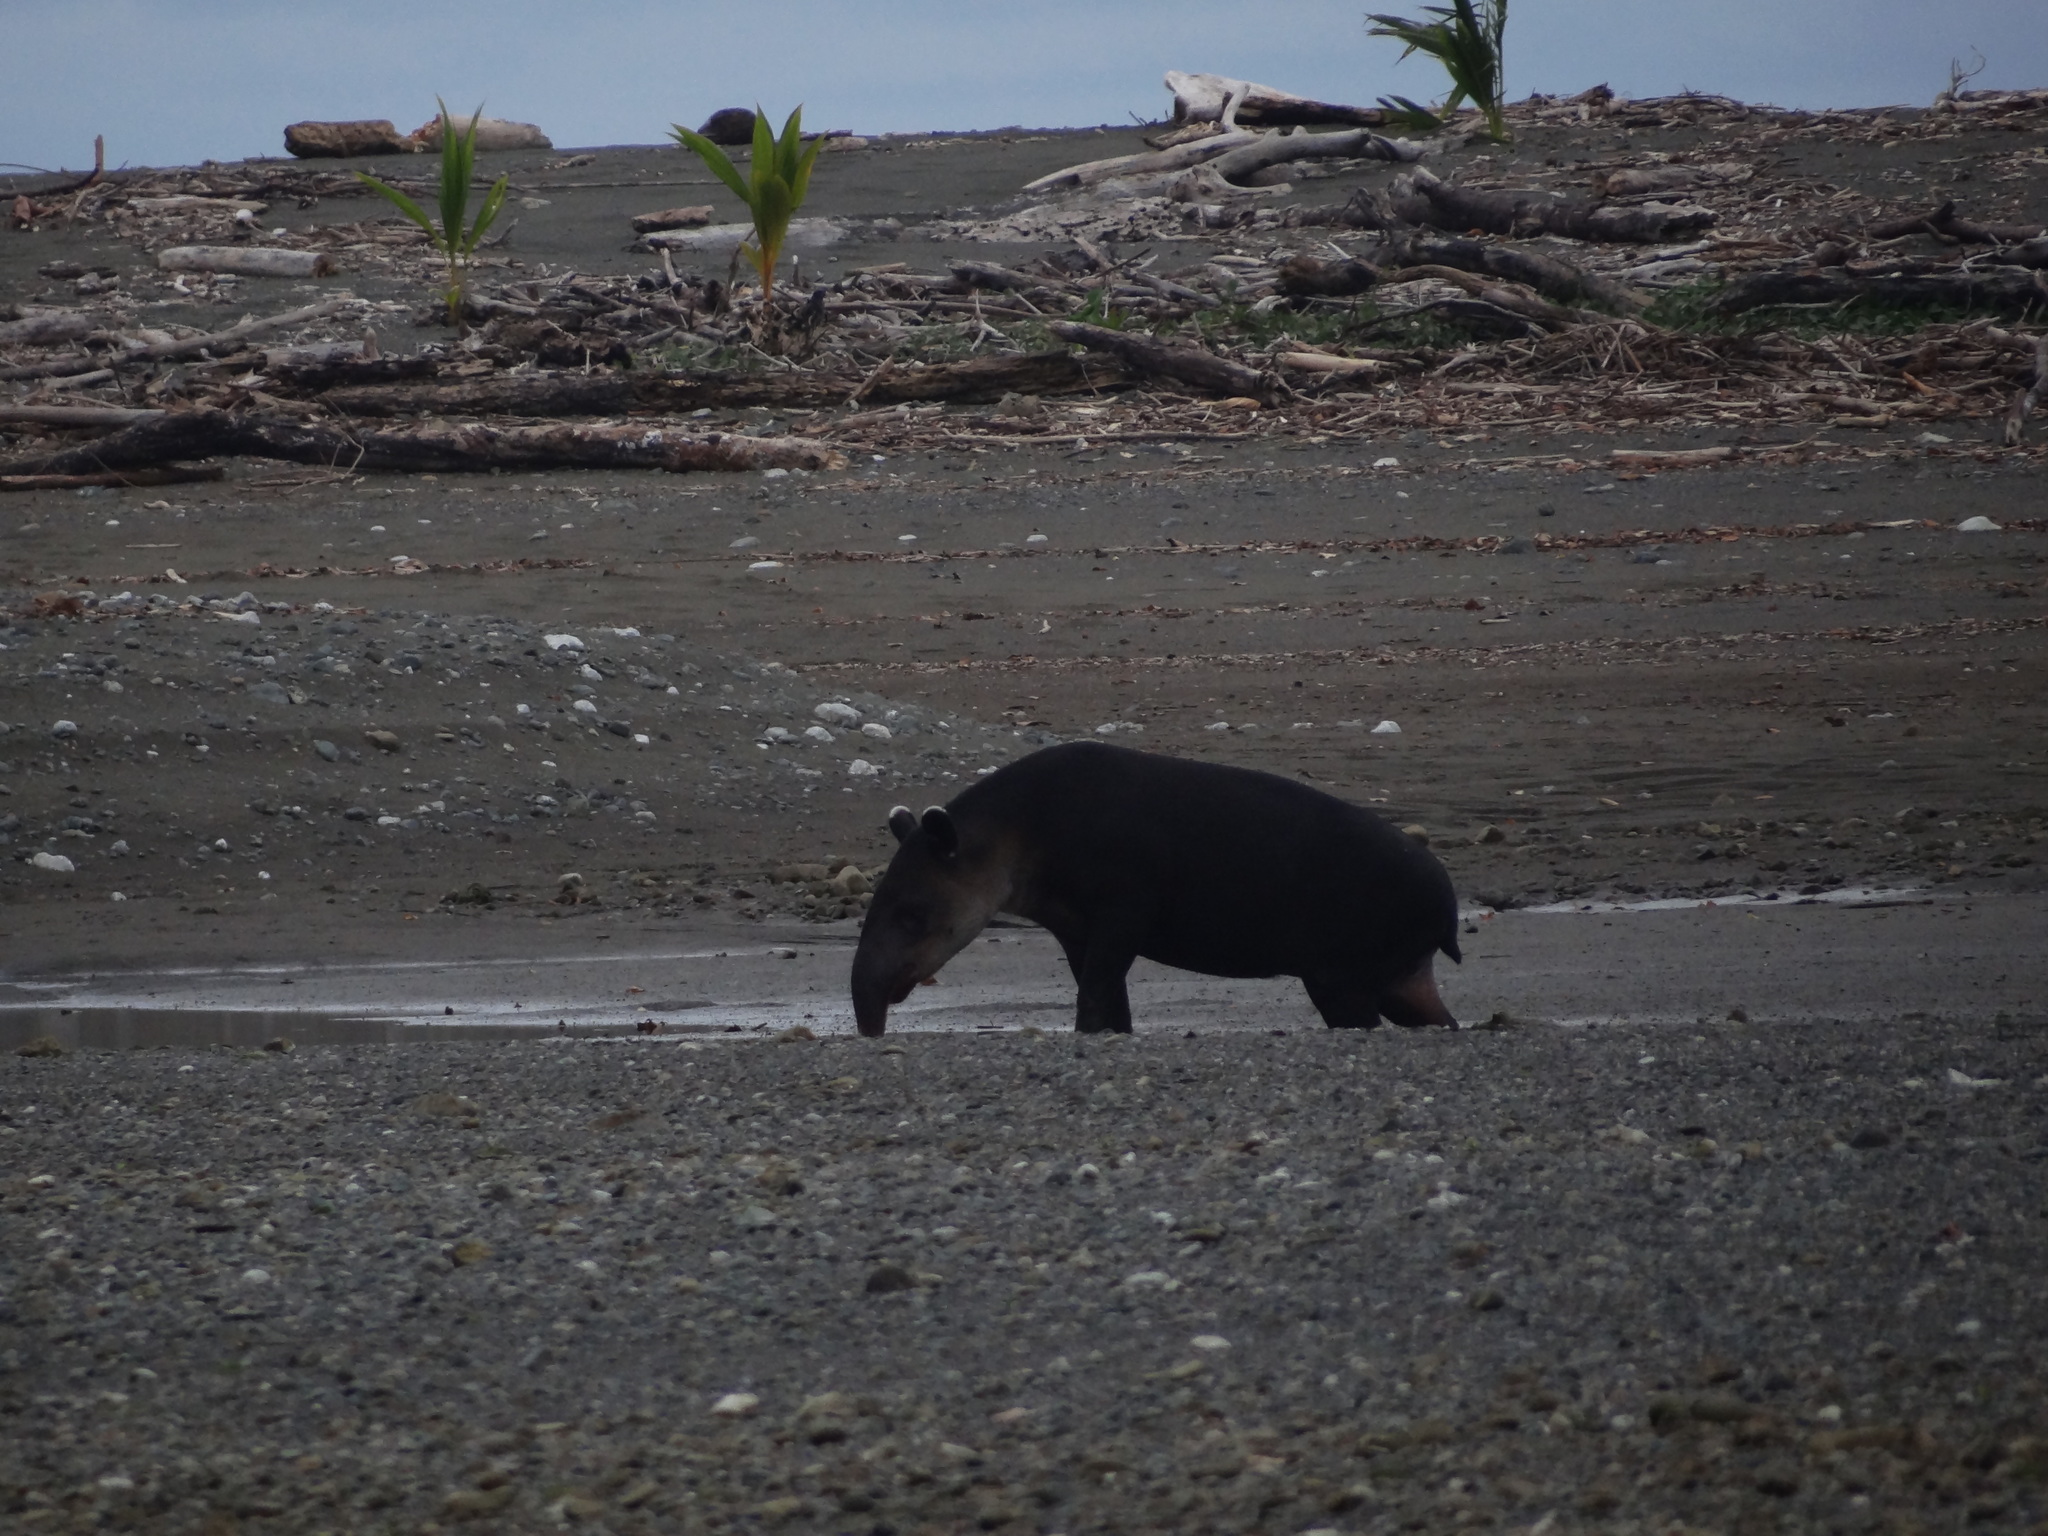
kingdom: Animalia
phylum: Chordata
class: Mammalia
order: Perissodactyla
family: Tapiridae
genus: Tapirella
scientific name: Tapirella bairdii
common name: Baird's tapir
